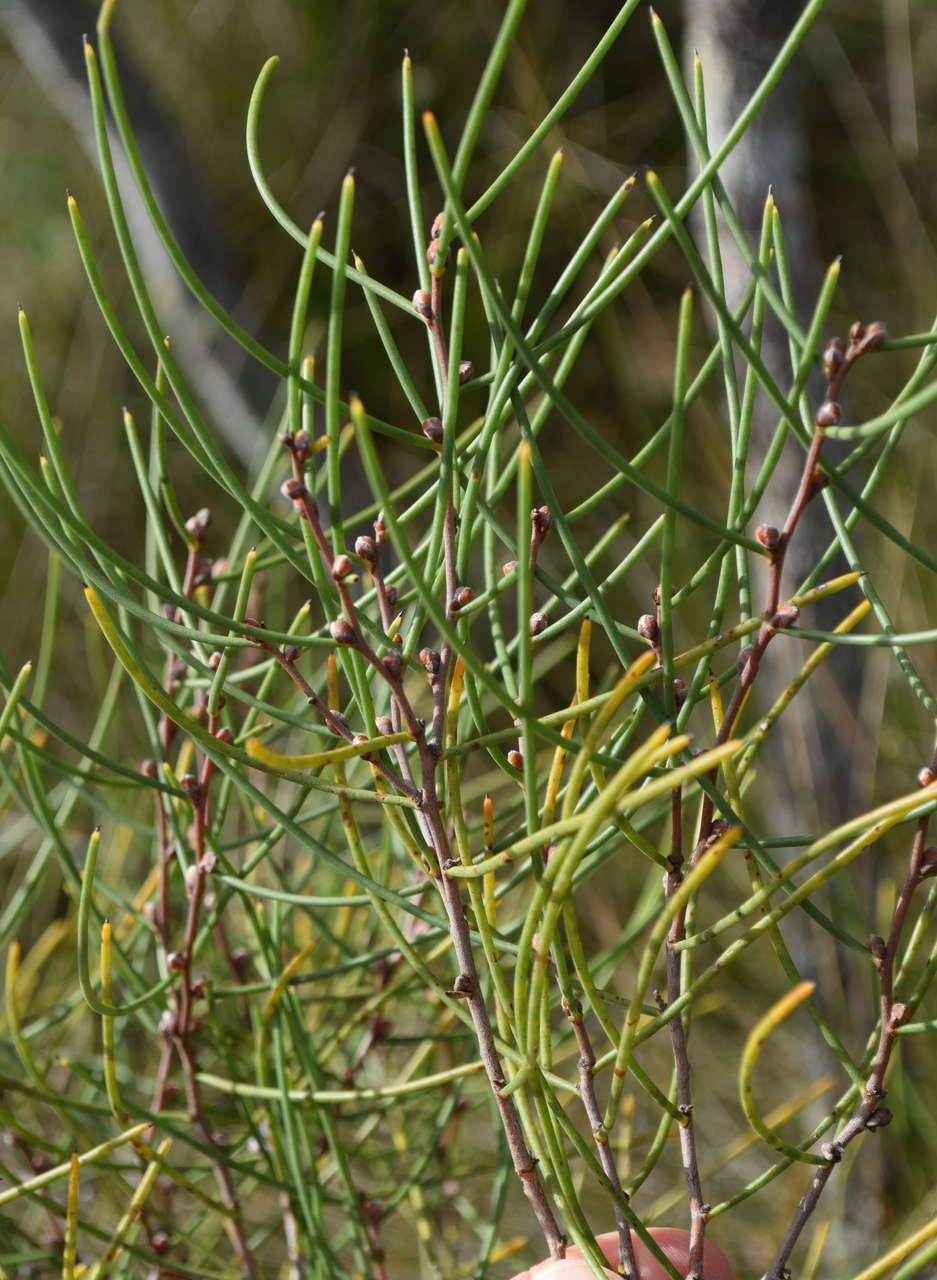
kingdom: Plantae
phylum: Tracheophyta
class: Magnoliopsida
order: Proteales
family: Proteaceae
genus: Hakea
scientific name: Hakea rostrata
